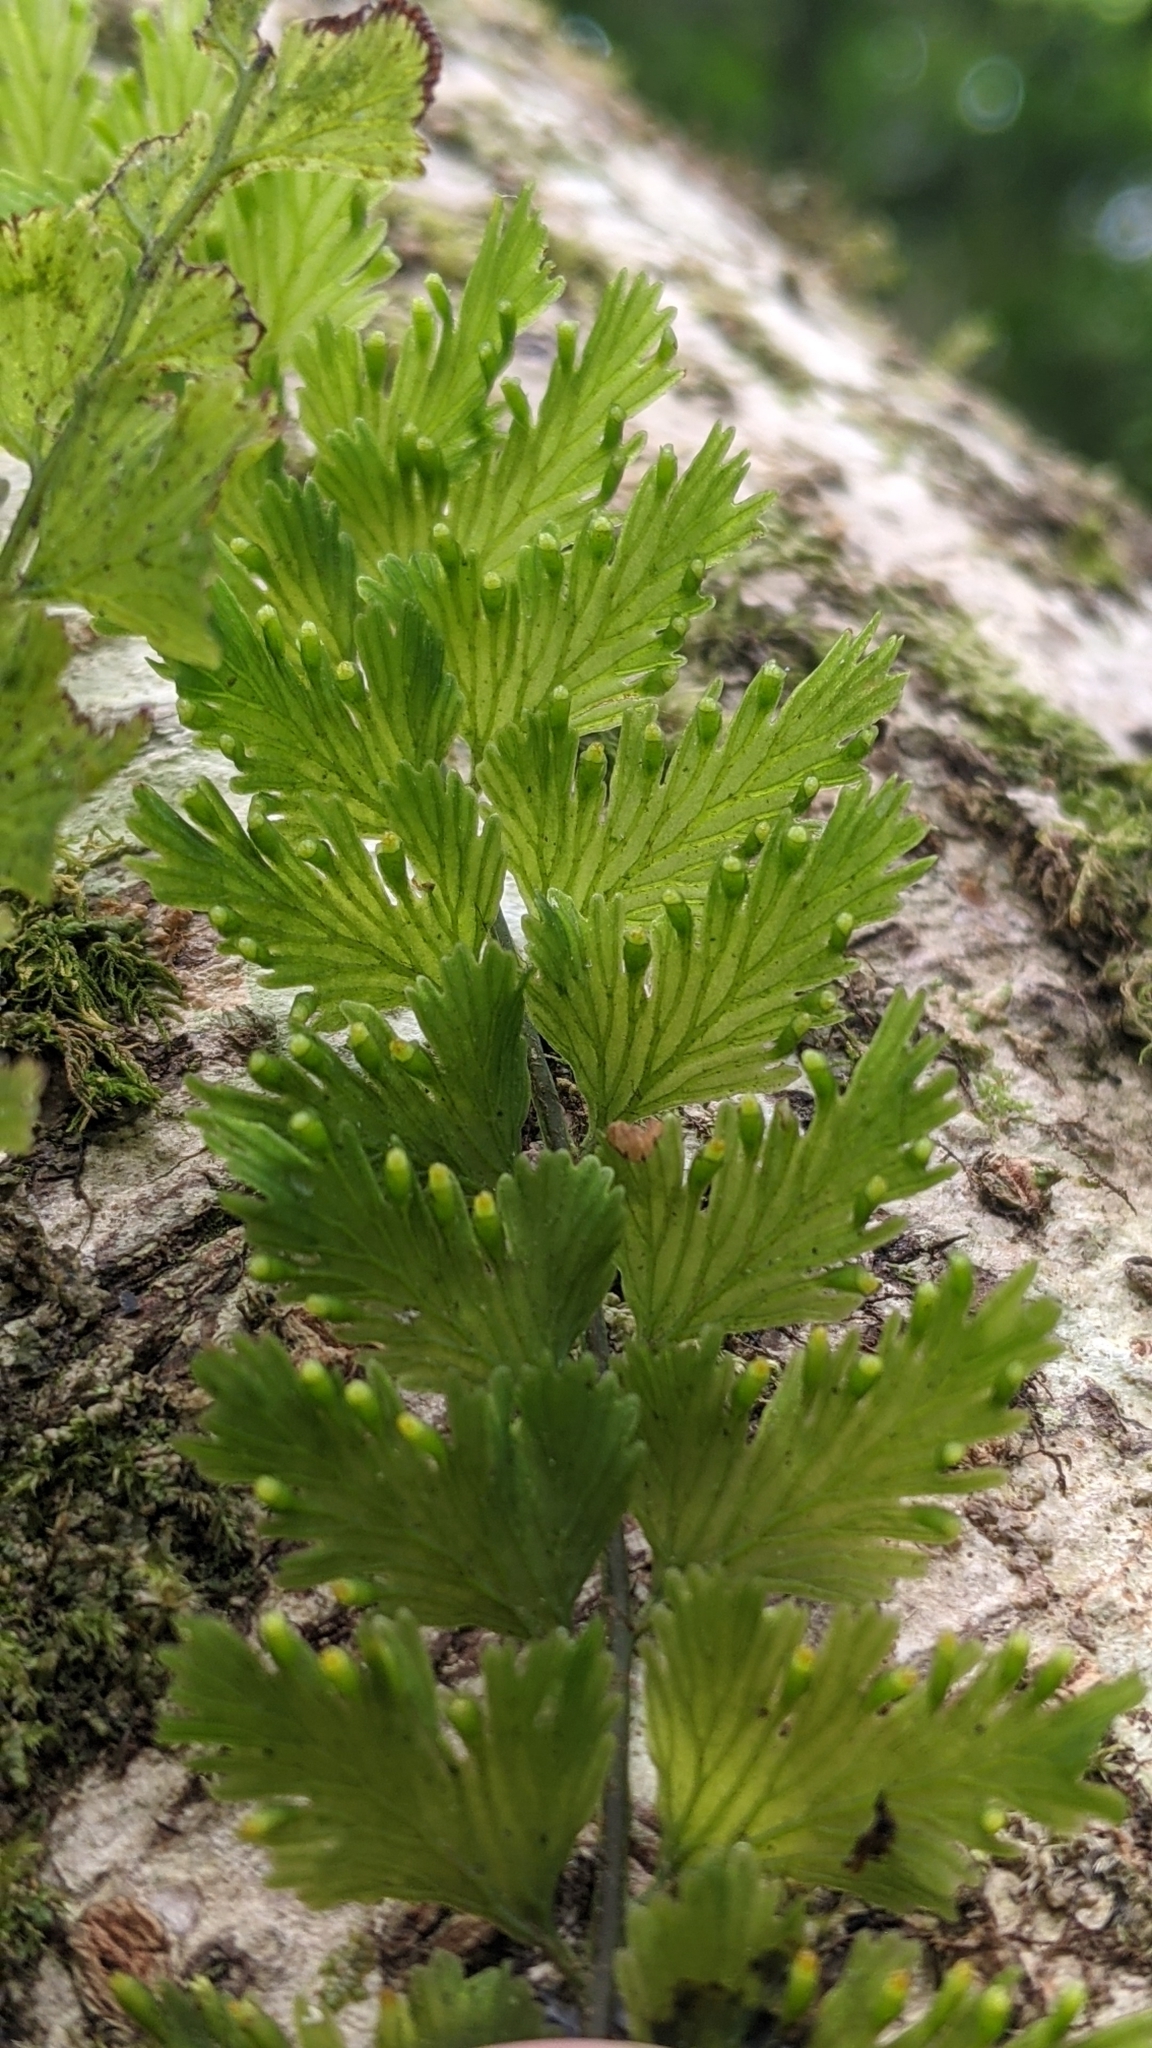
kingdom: Plantae
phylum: Tracheophyta
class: Polypodiopsida
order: Hymenophyllales
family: Hymenophyllaceae
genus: Vandenboschia
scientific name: Vandenboschia auriculata
